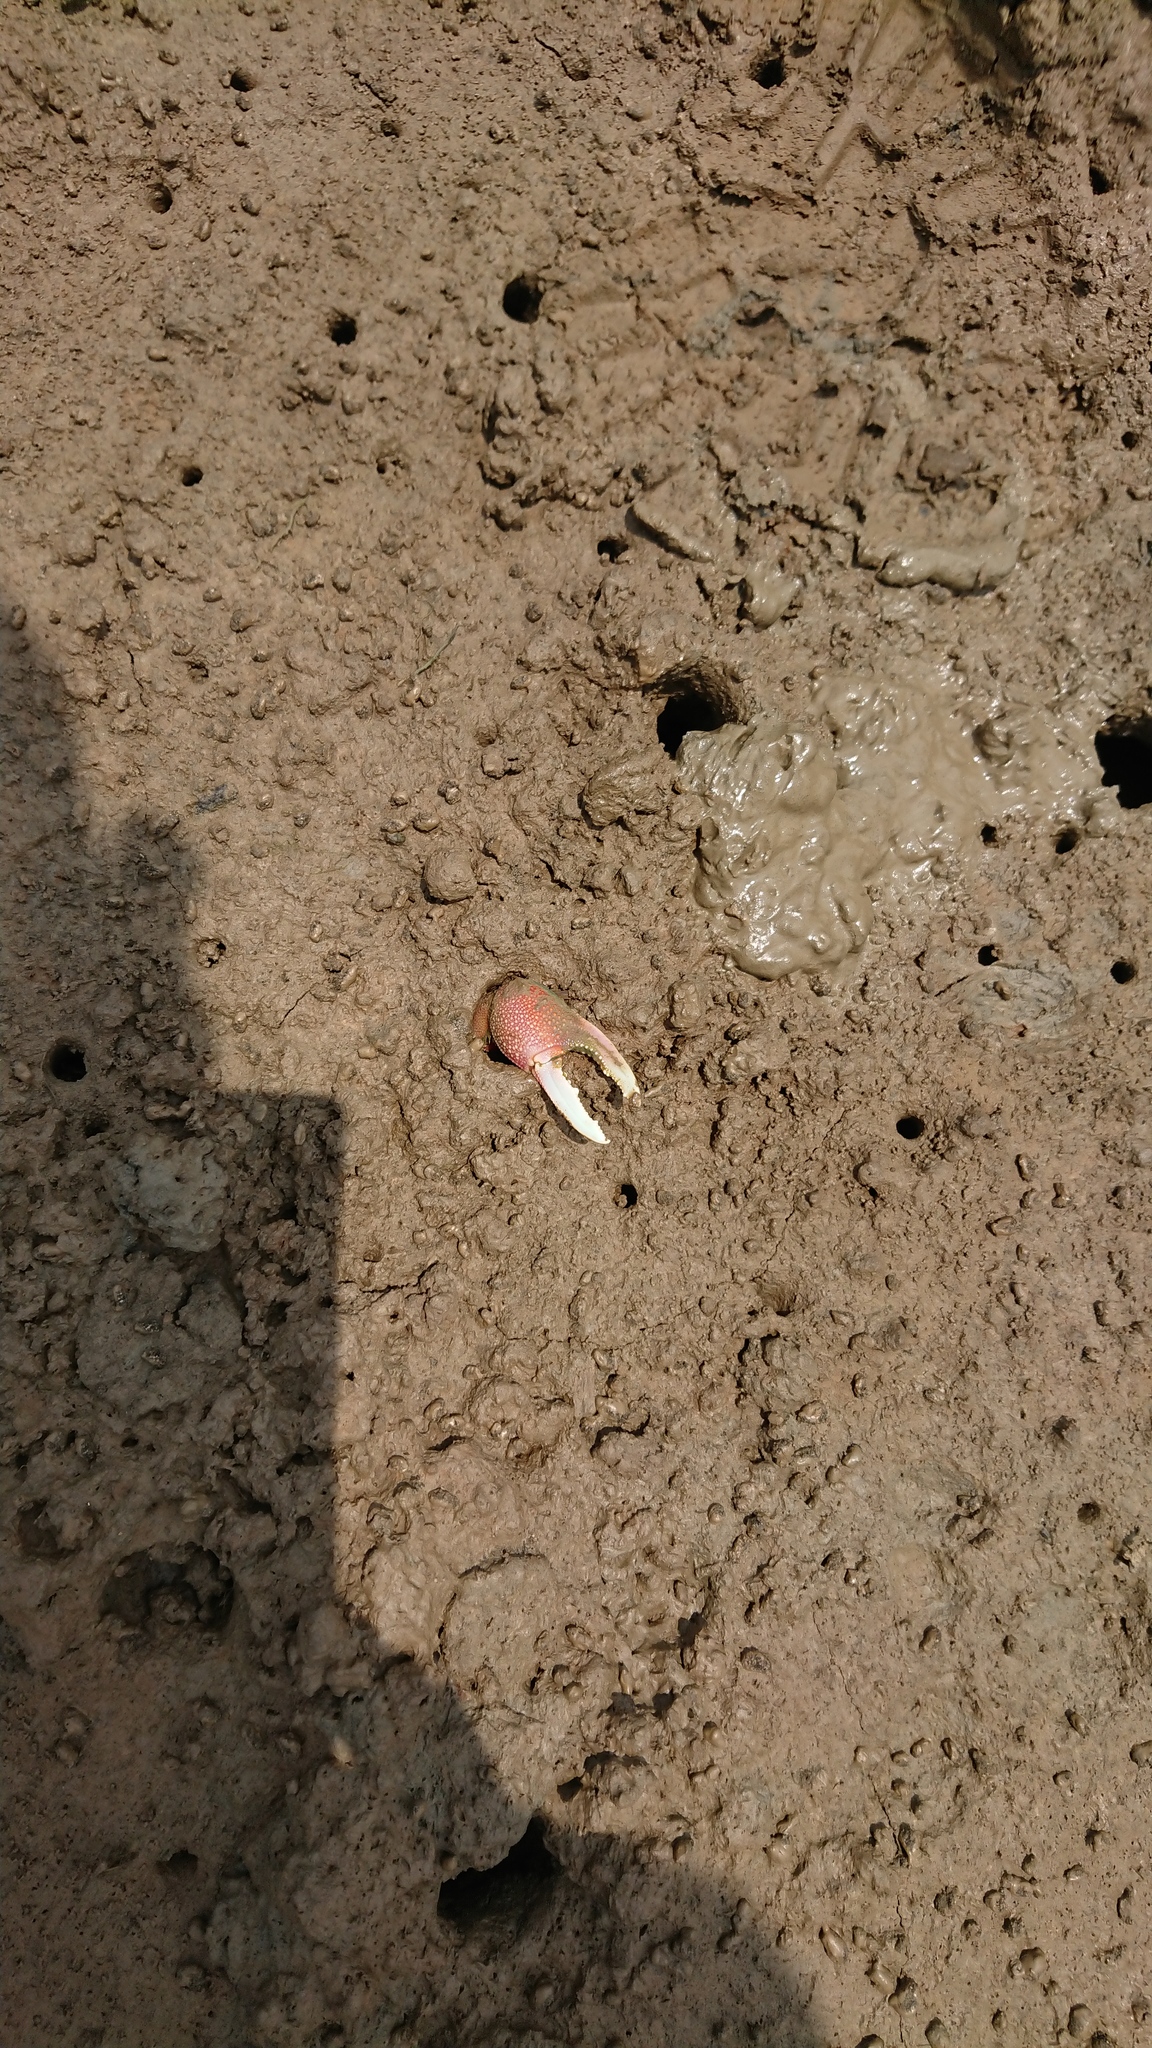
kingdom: Animalia
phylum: Arthropoda
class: Malacostraca
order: Decapoda
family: Ocypodidae
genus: Tubuca
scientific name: Tubuca arcuata
